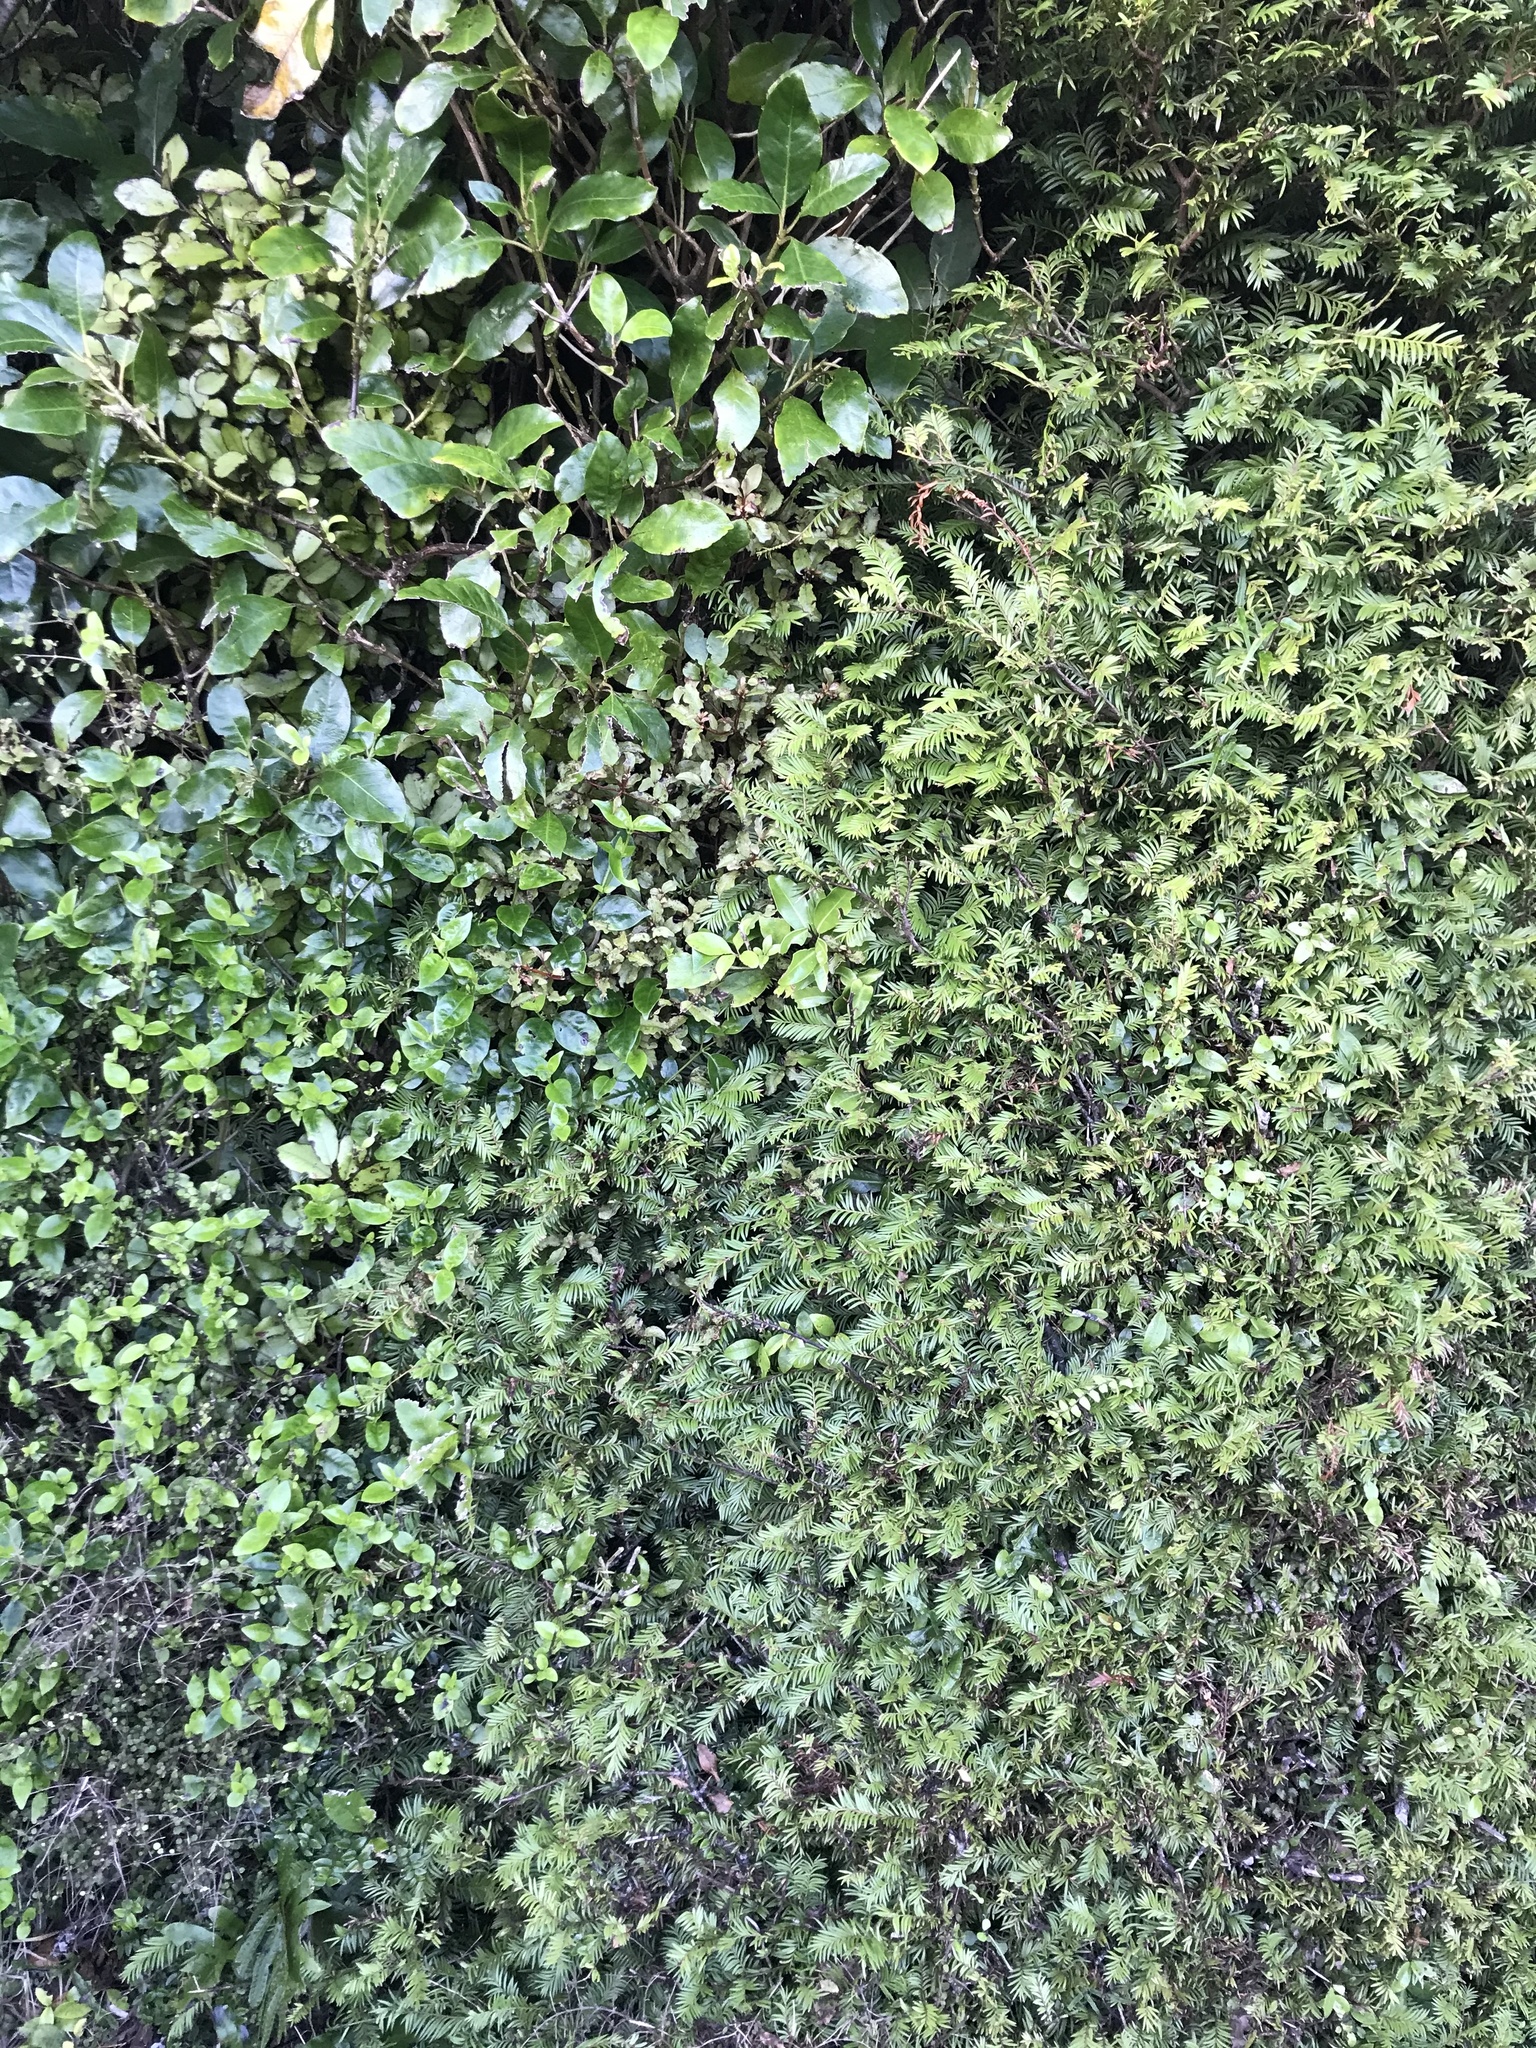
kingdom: Plantae
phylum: Tracheophyta
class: Pinopsida
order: Pinales
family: Podocarpaceae
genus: Prumnopitys
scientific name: Prumnopitys ferruginea
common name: Brown pine
